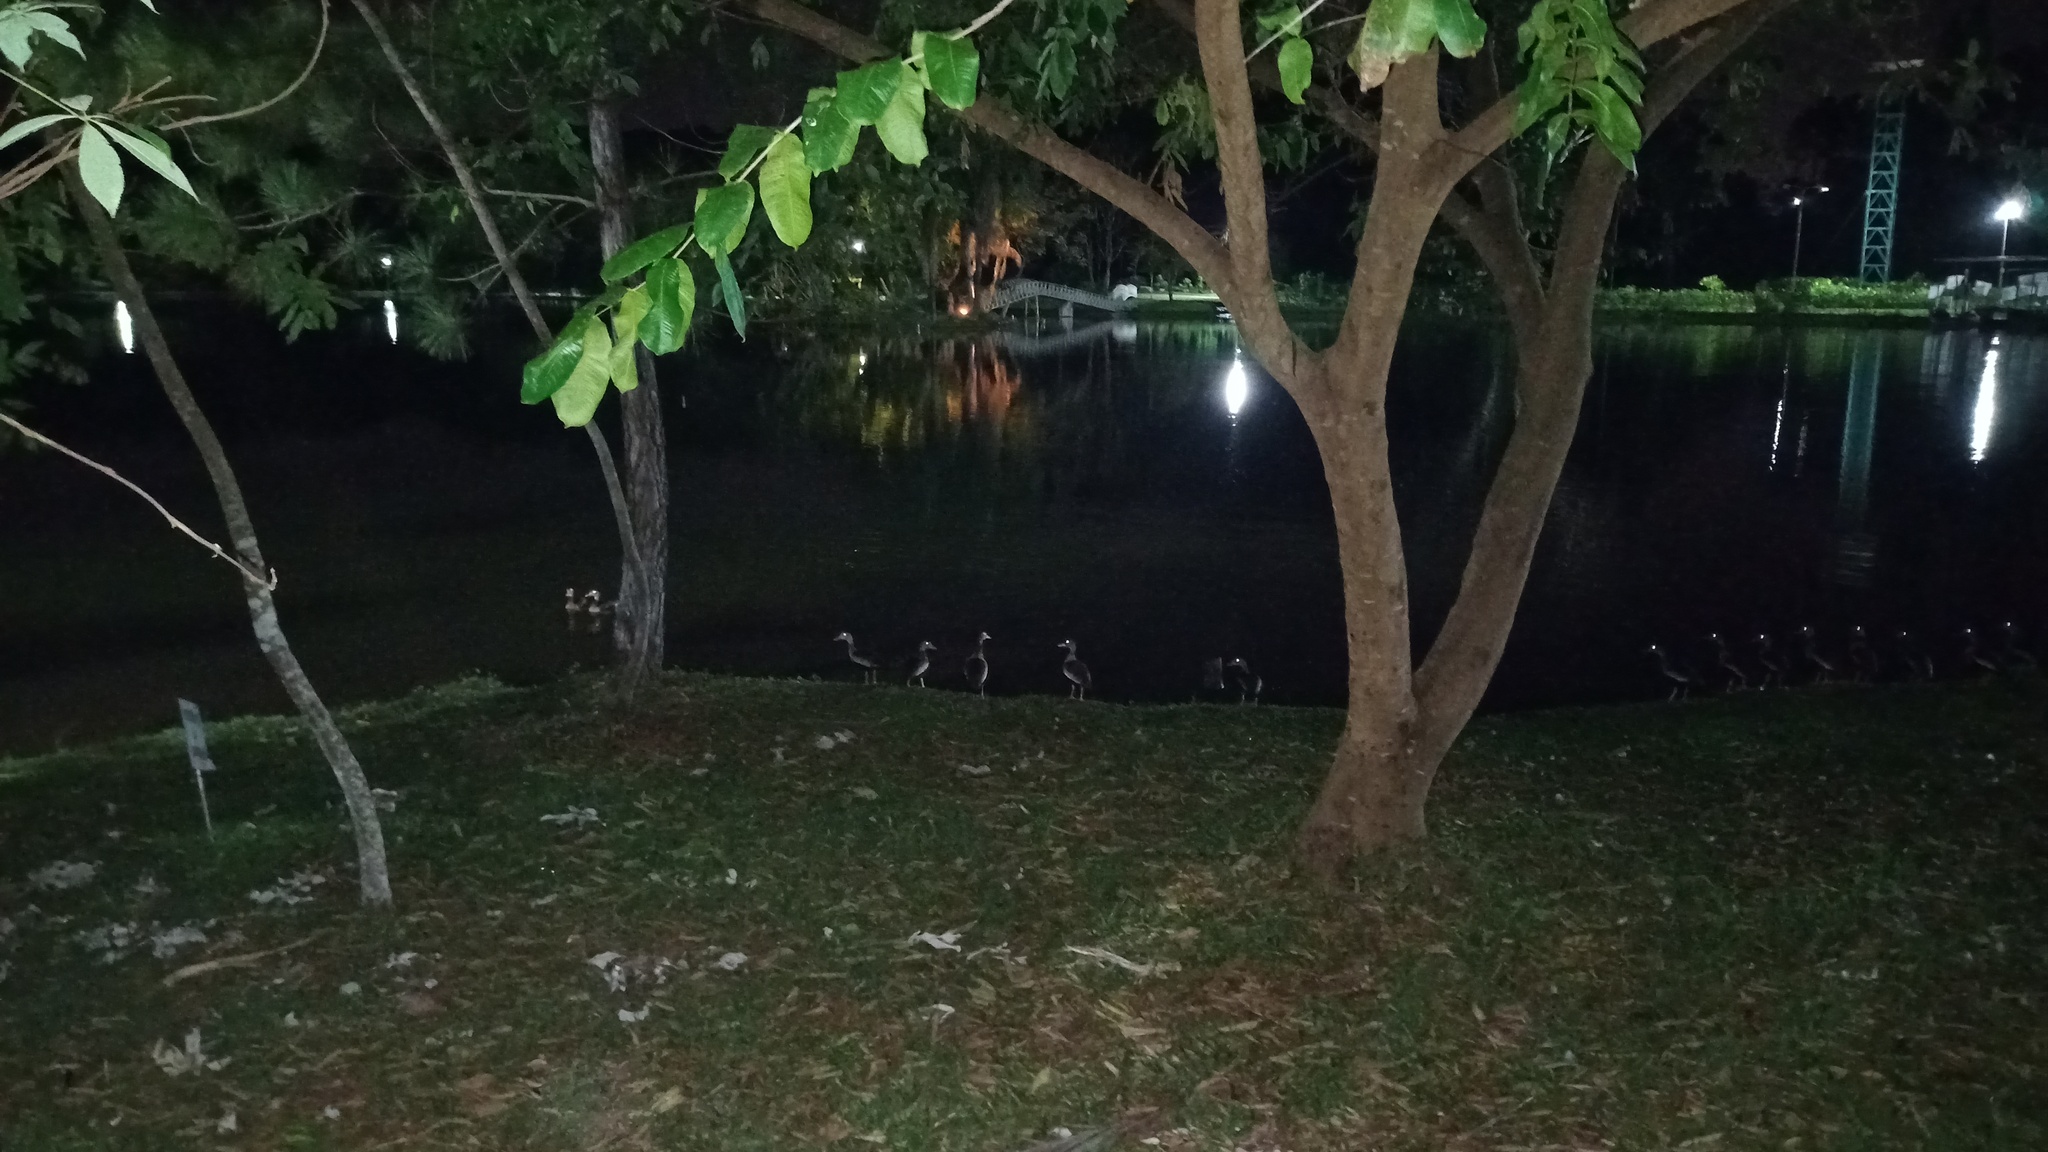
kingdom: Animalia
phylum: Chordata
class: Aves
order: Anseriformes
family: Anatidae
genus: Dendrocygna
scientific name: Dendrocygna autumnalis
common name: Black-bellied whistling duck
